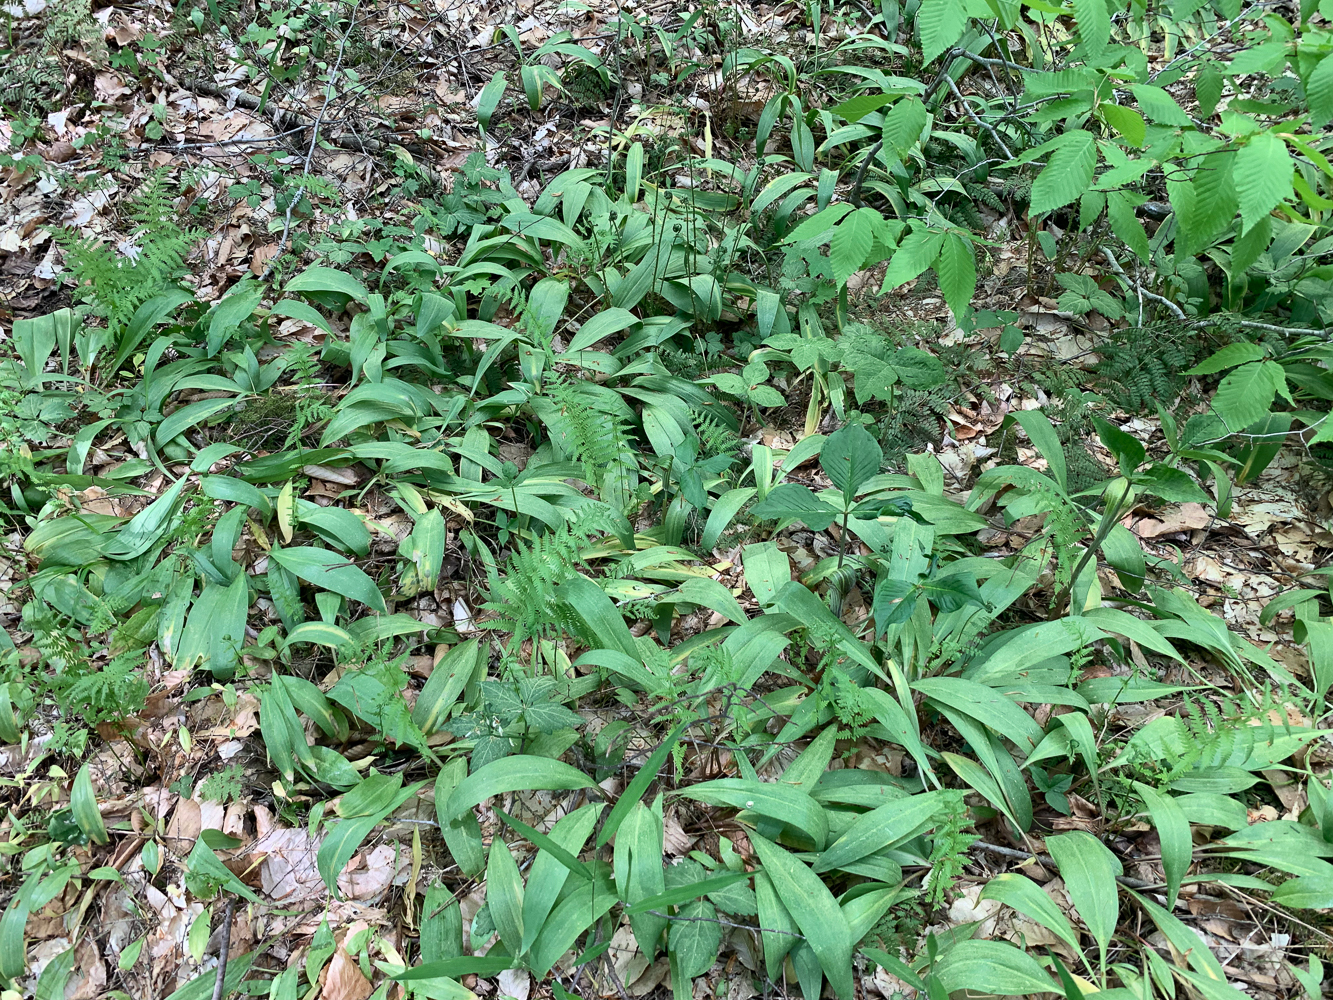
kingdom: Plantae
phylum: Tracheophyta
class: Liliopsida
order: Asparagales
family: Amaryllidaceae
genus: Allium
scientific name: Allium tricoccum
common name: Ramp
